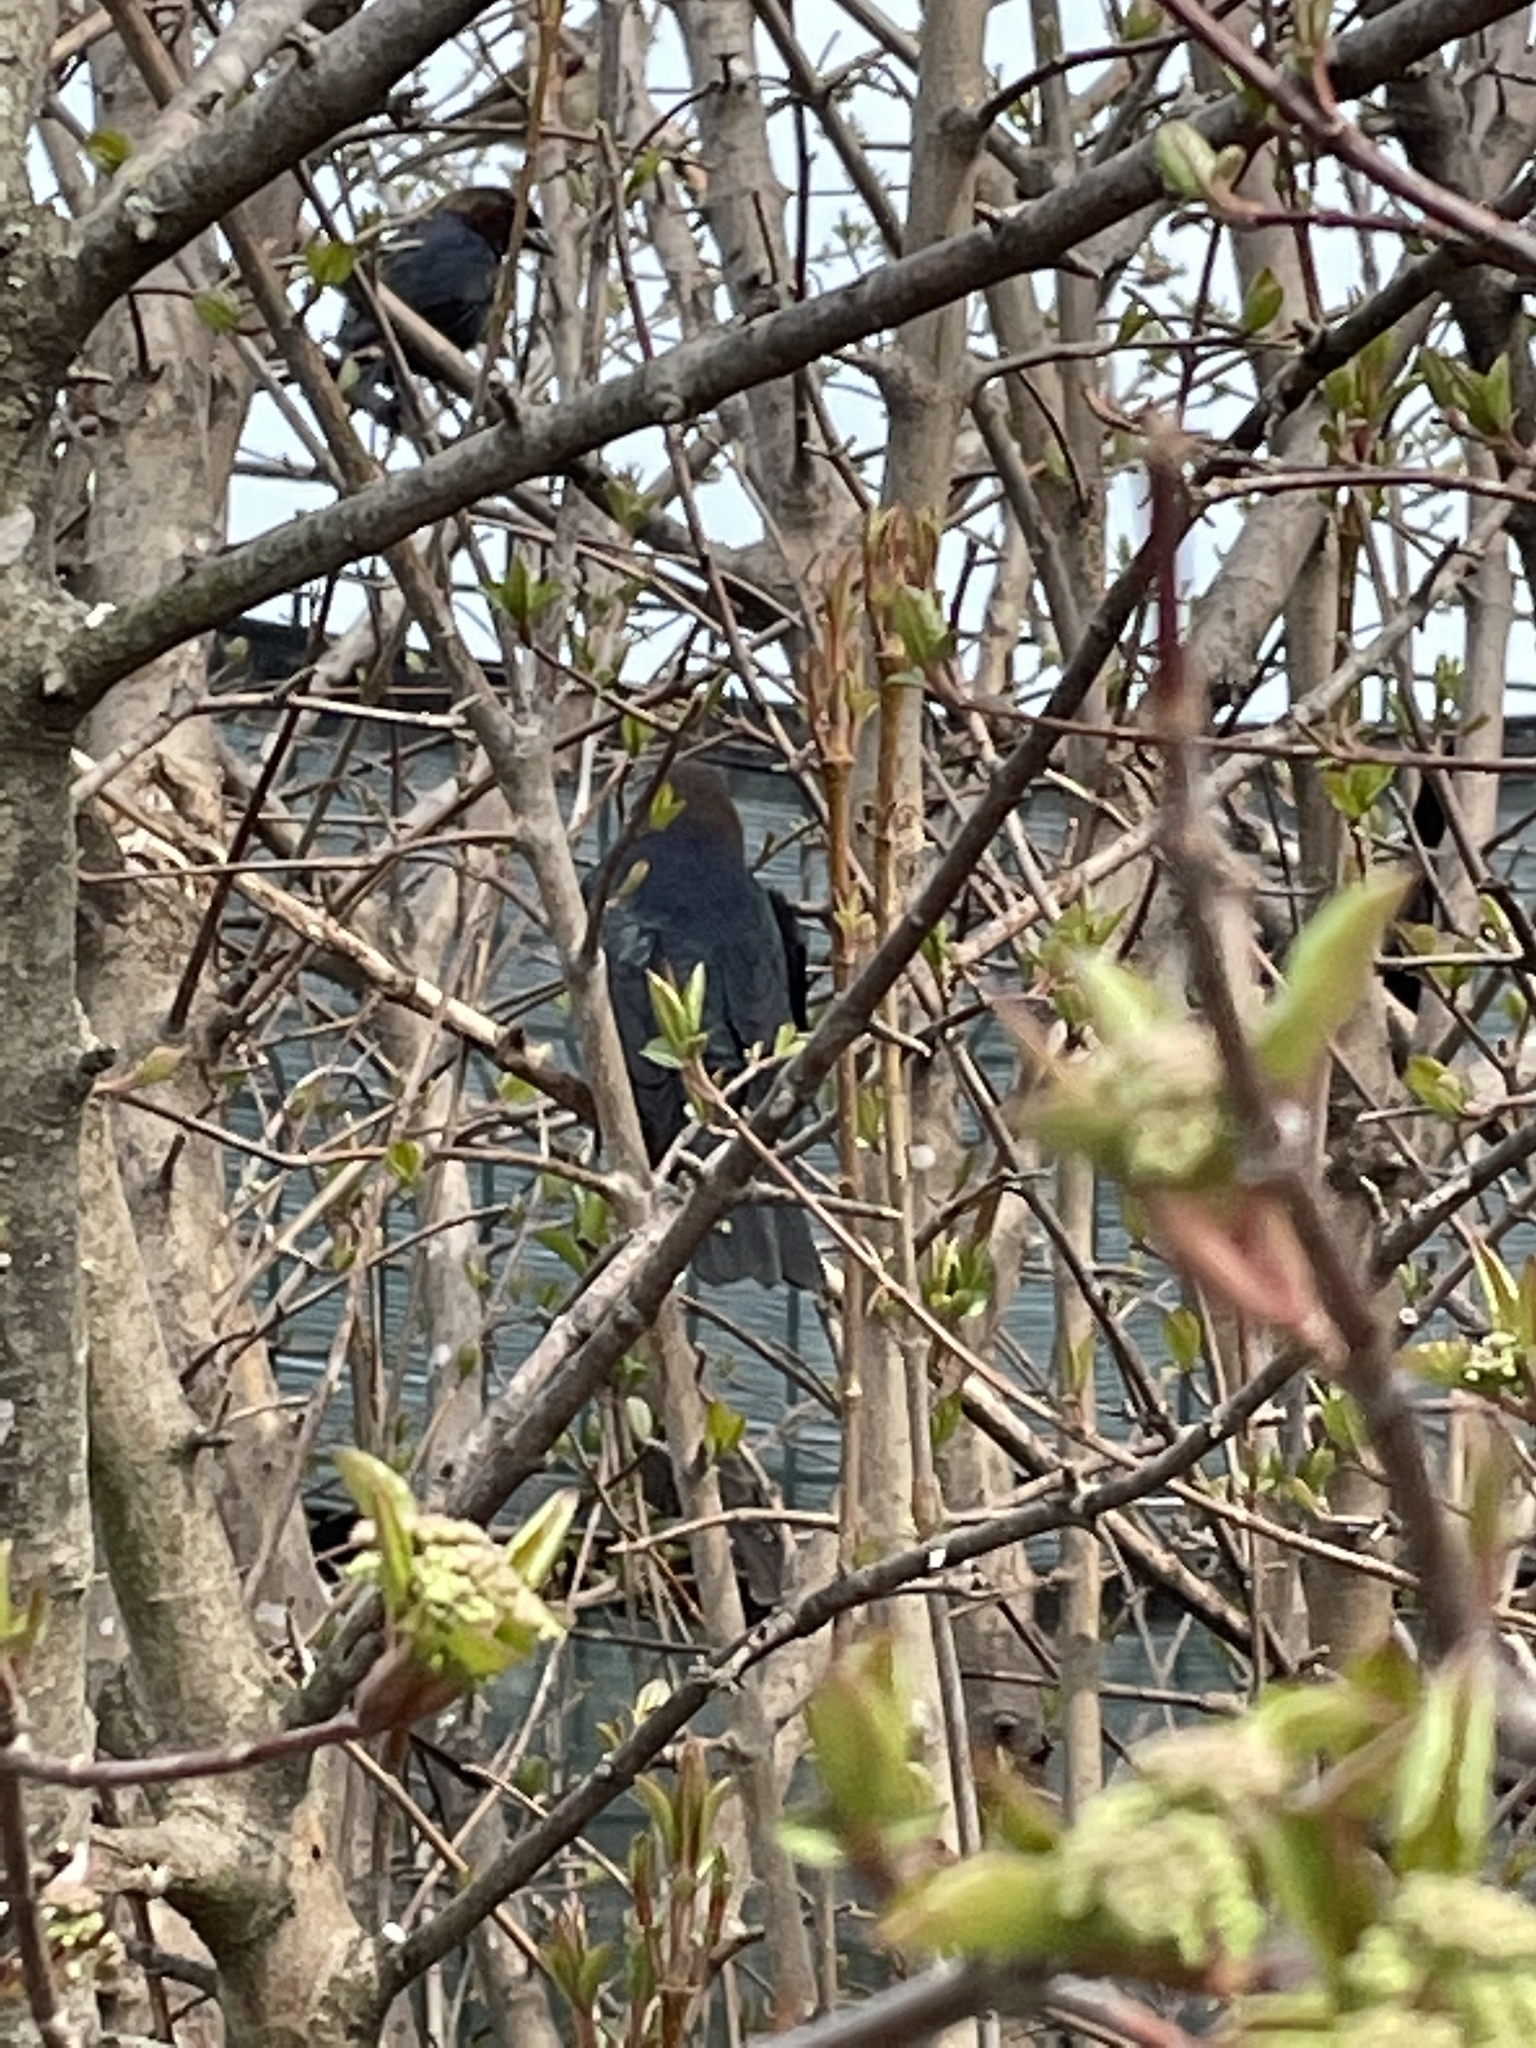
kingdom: Animalia
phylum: Chordata
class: Aves
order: Passeriformes
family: Icteridae
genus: Molothrus
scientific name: Molothrus ater
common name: Brown-headed cowbird
